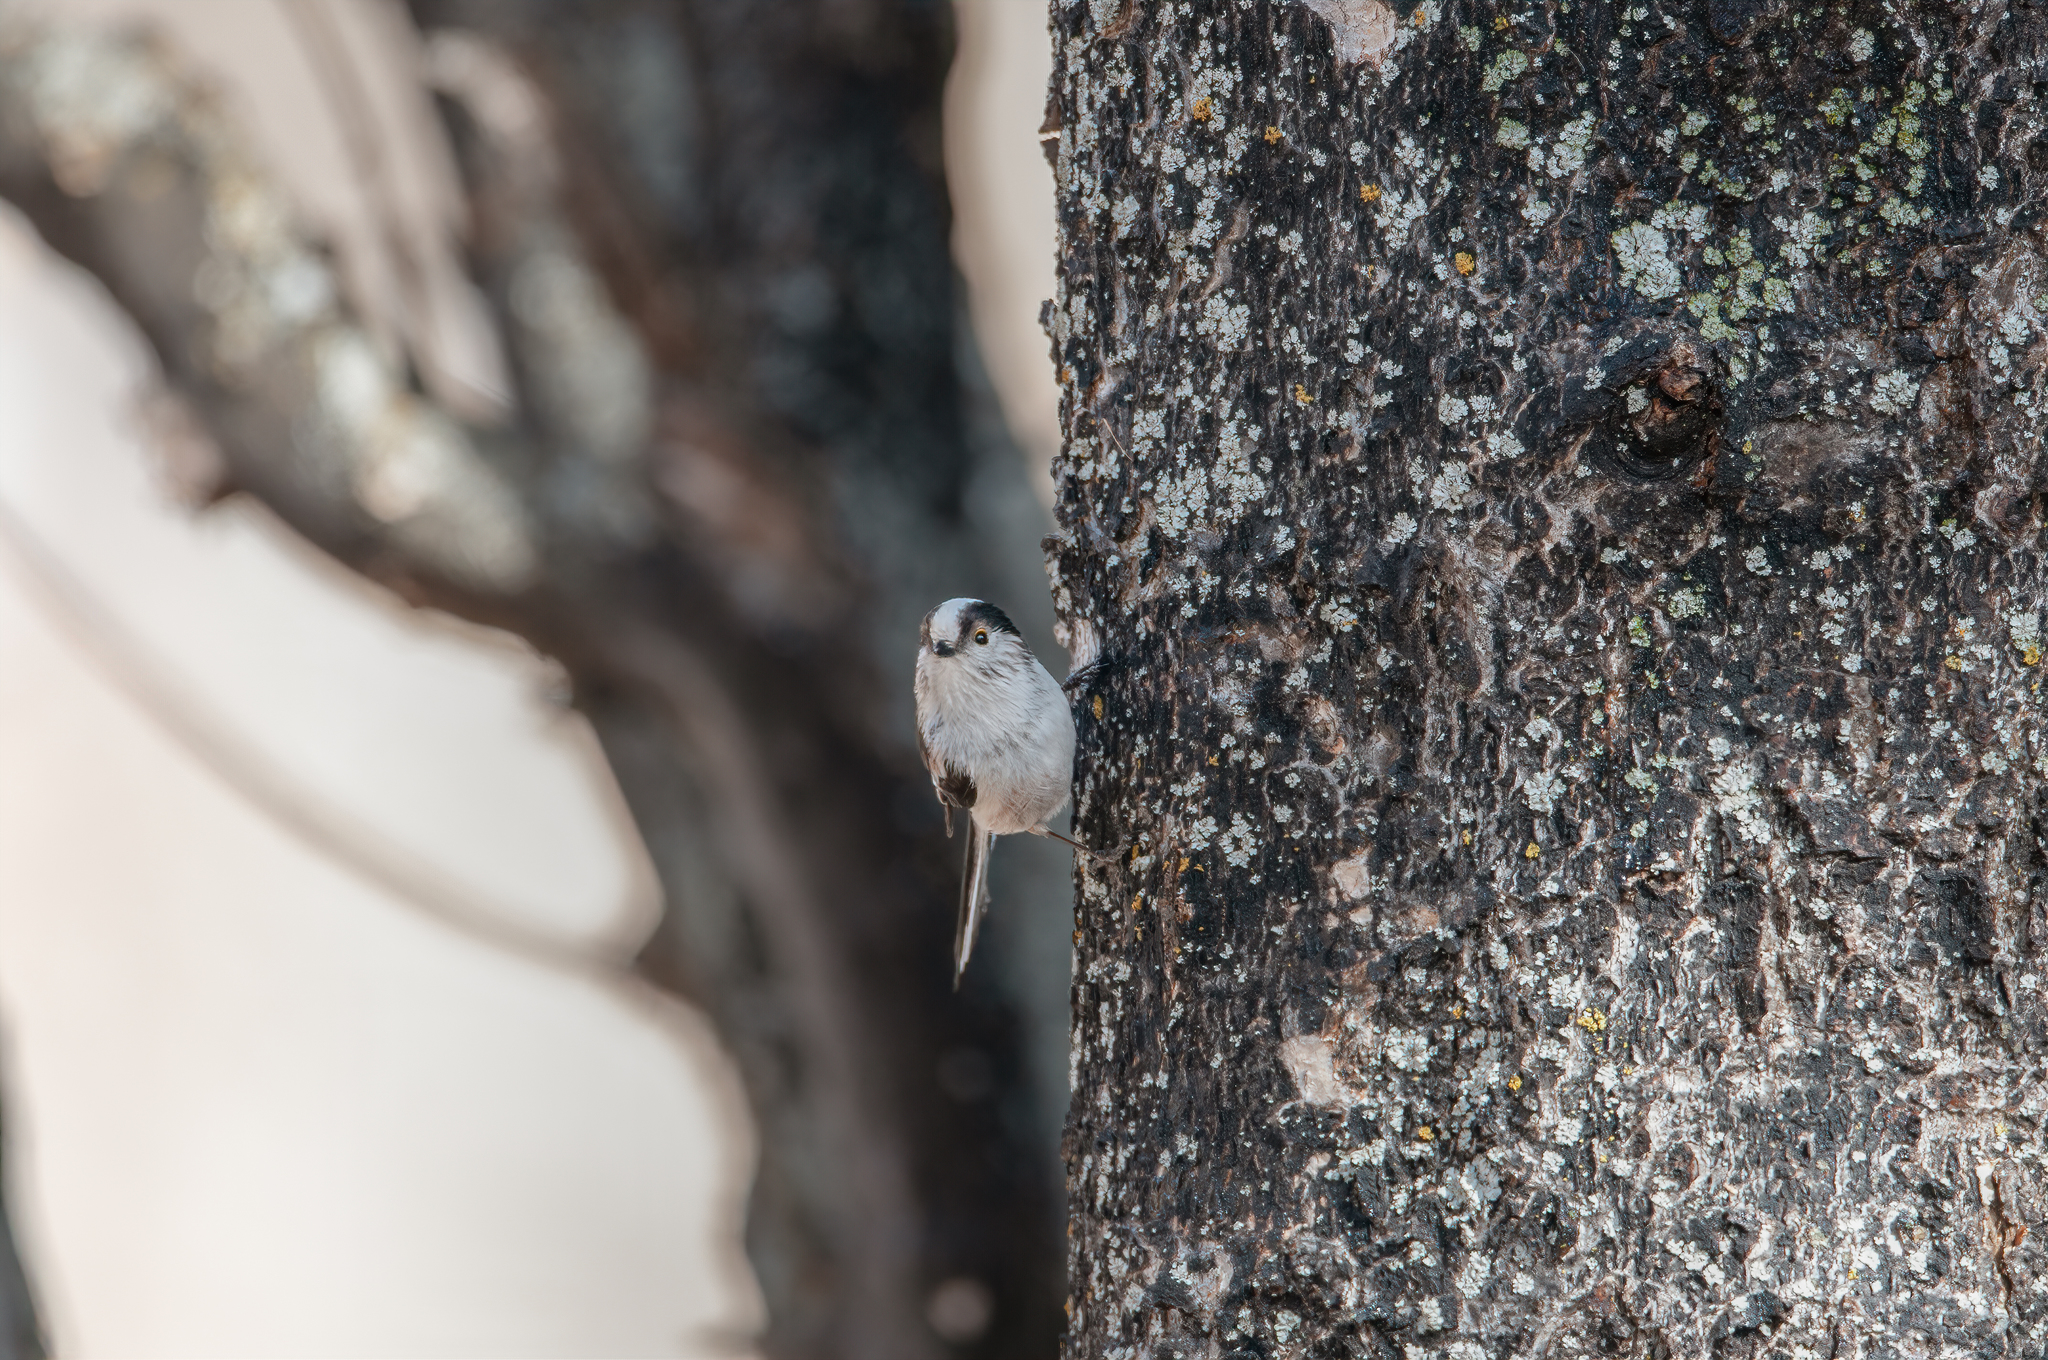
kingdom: Animalia
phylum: Chordata
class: Aves
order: Passeriformes
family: Aegithalidae
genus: Aegithalos
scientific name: Aegithalos caudatus
